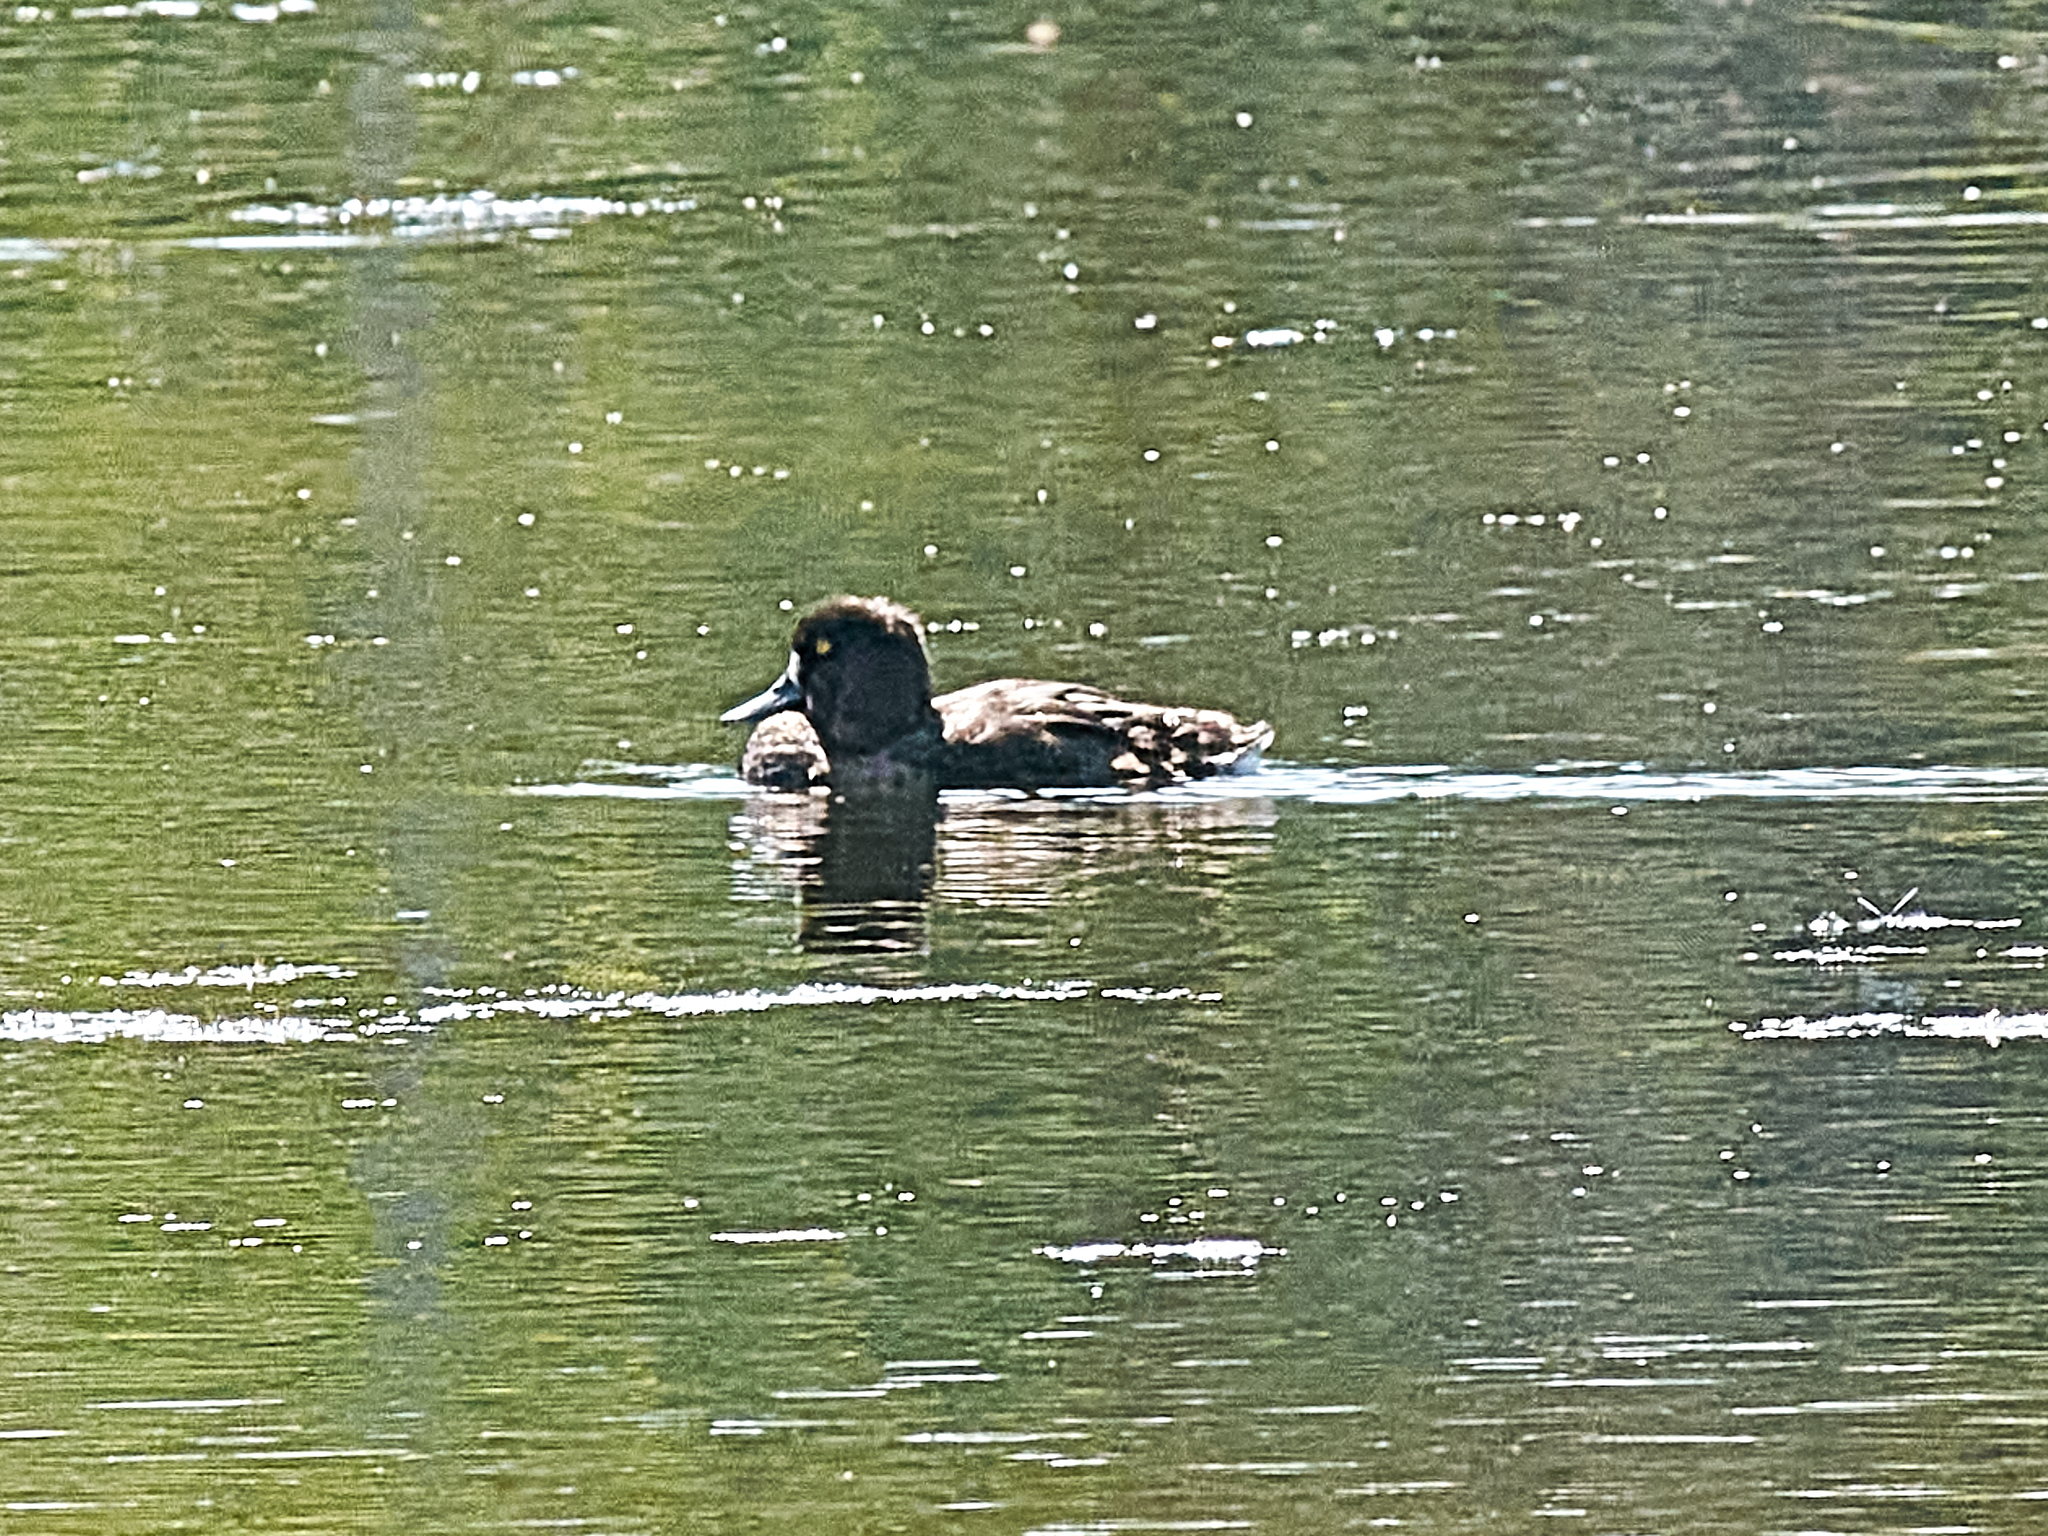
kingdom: Animalia
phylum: Chordata
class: Aves
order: Anseriformes
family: Anatidae
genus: Aythya
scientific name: Aythya fuligula
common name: Tufted duck
